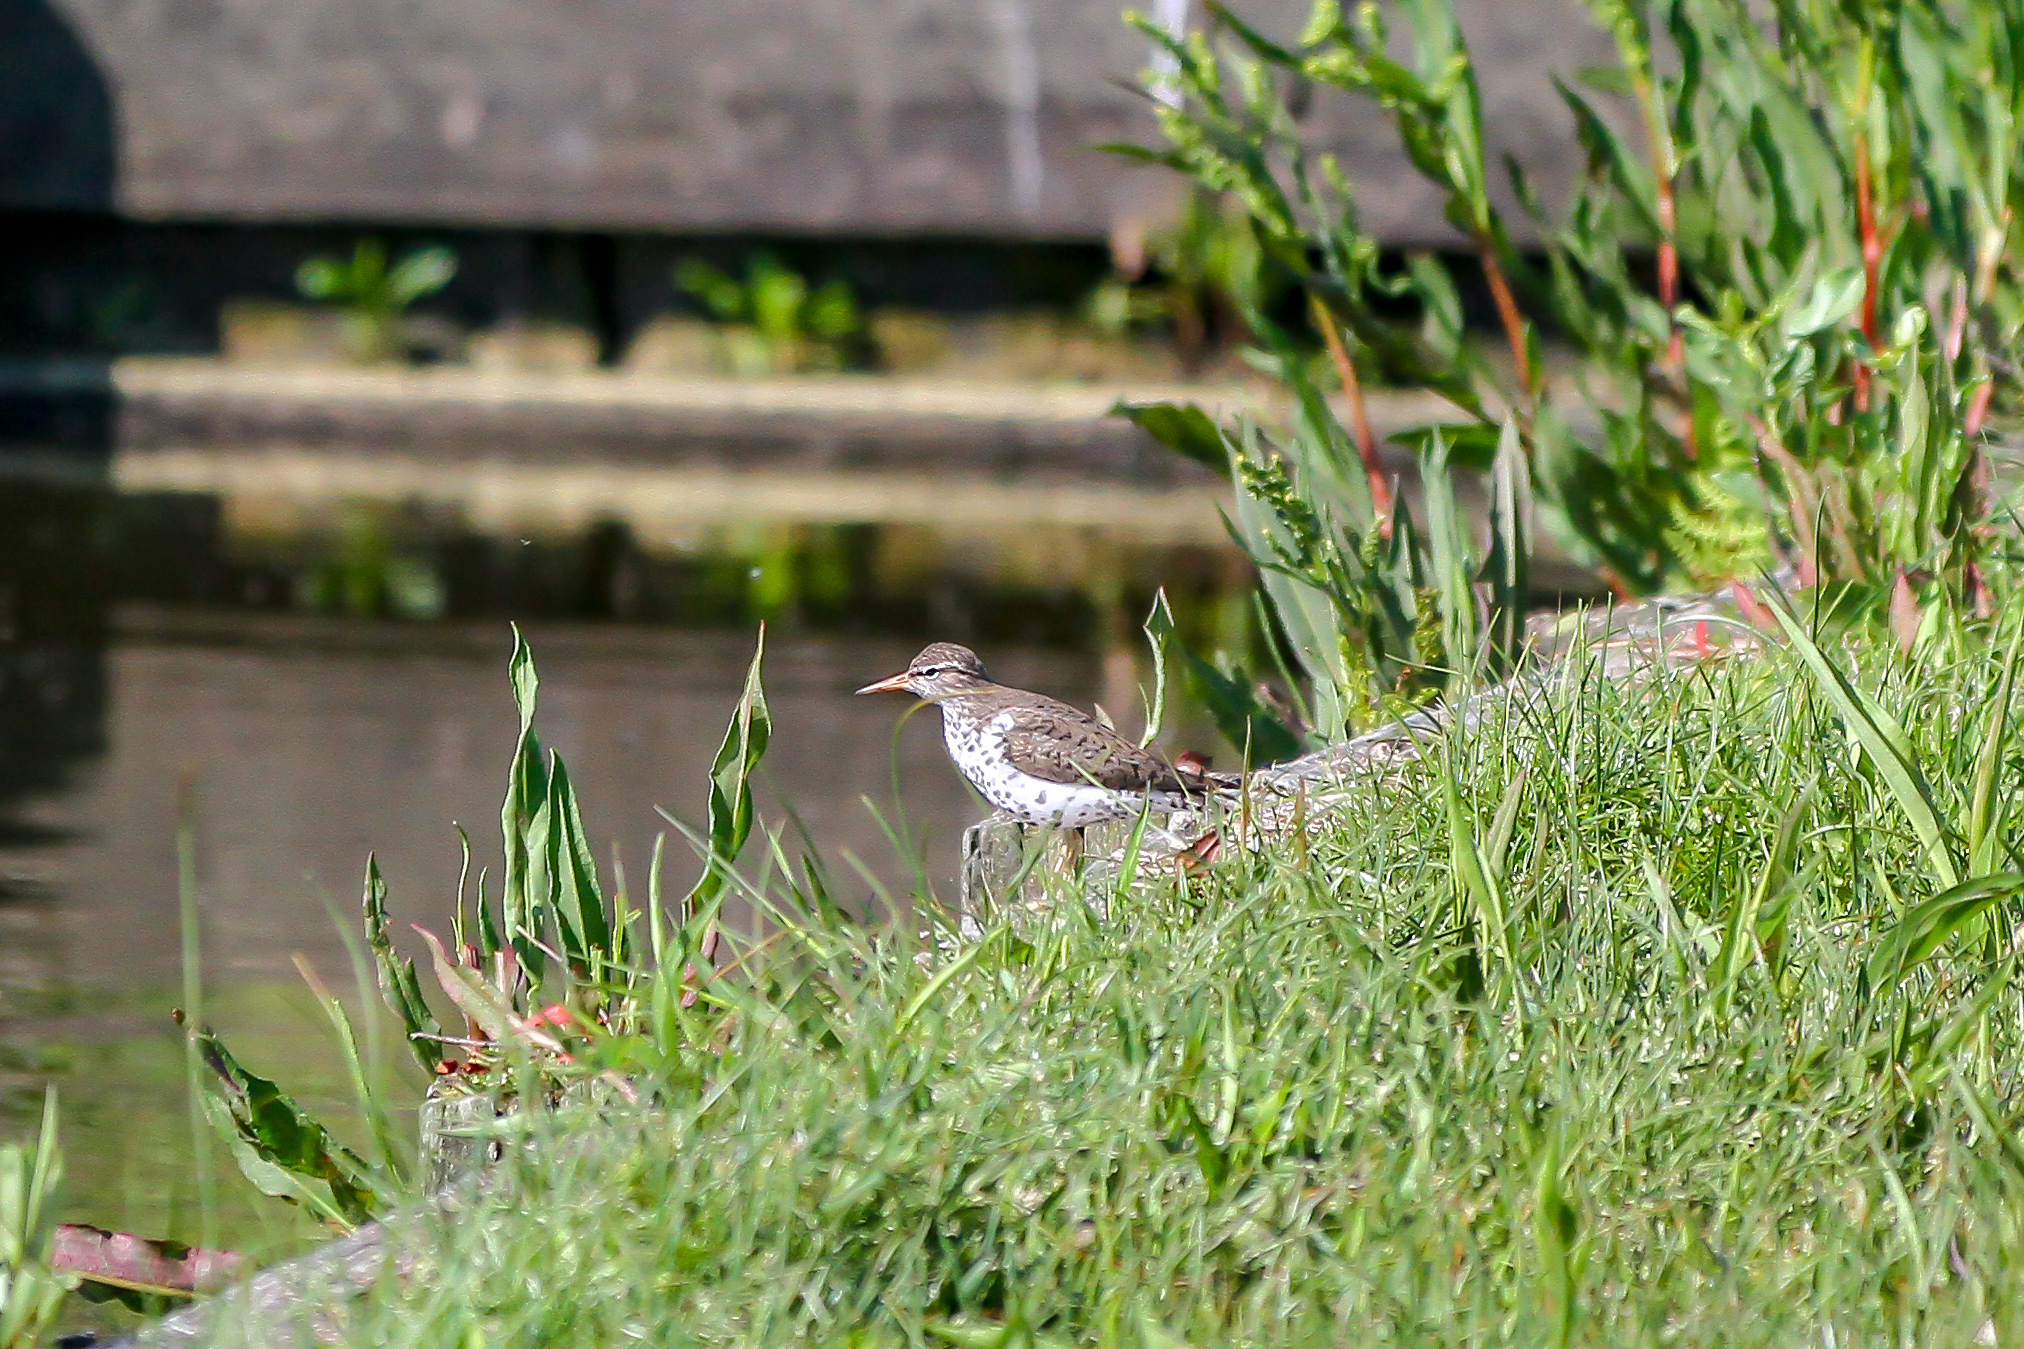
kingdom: Animalia
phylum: Chordata
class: Aves
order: Charadriiformes
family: Scolopacidae
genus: Actitis
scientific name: Actitis macularius
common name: Spotted sandpiper
